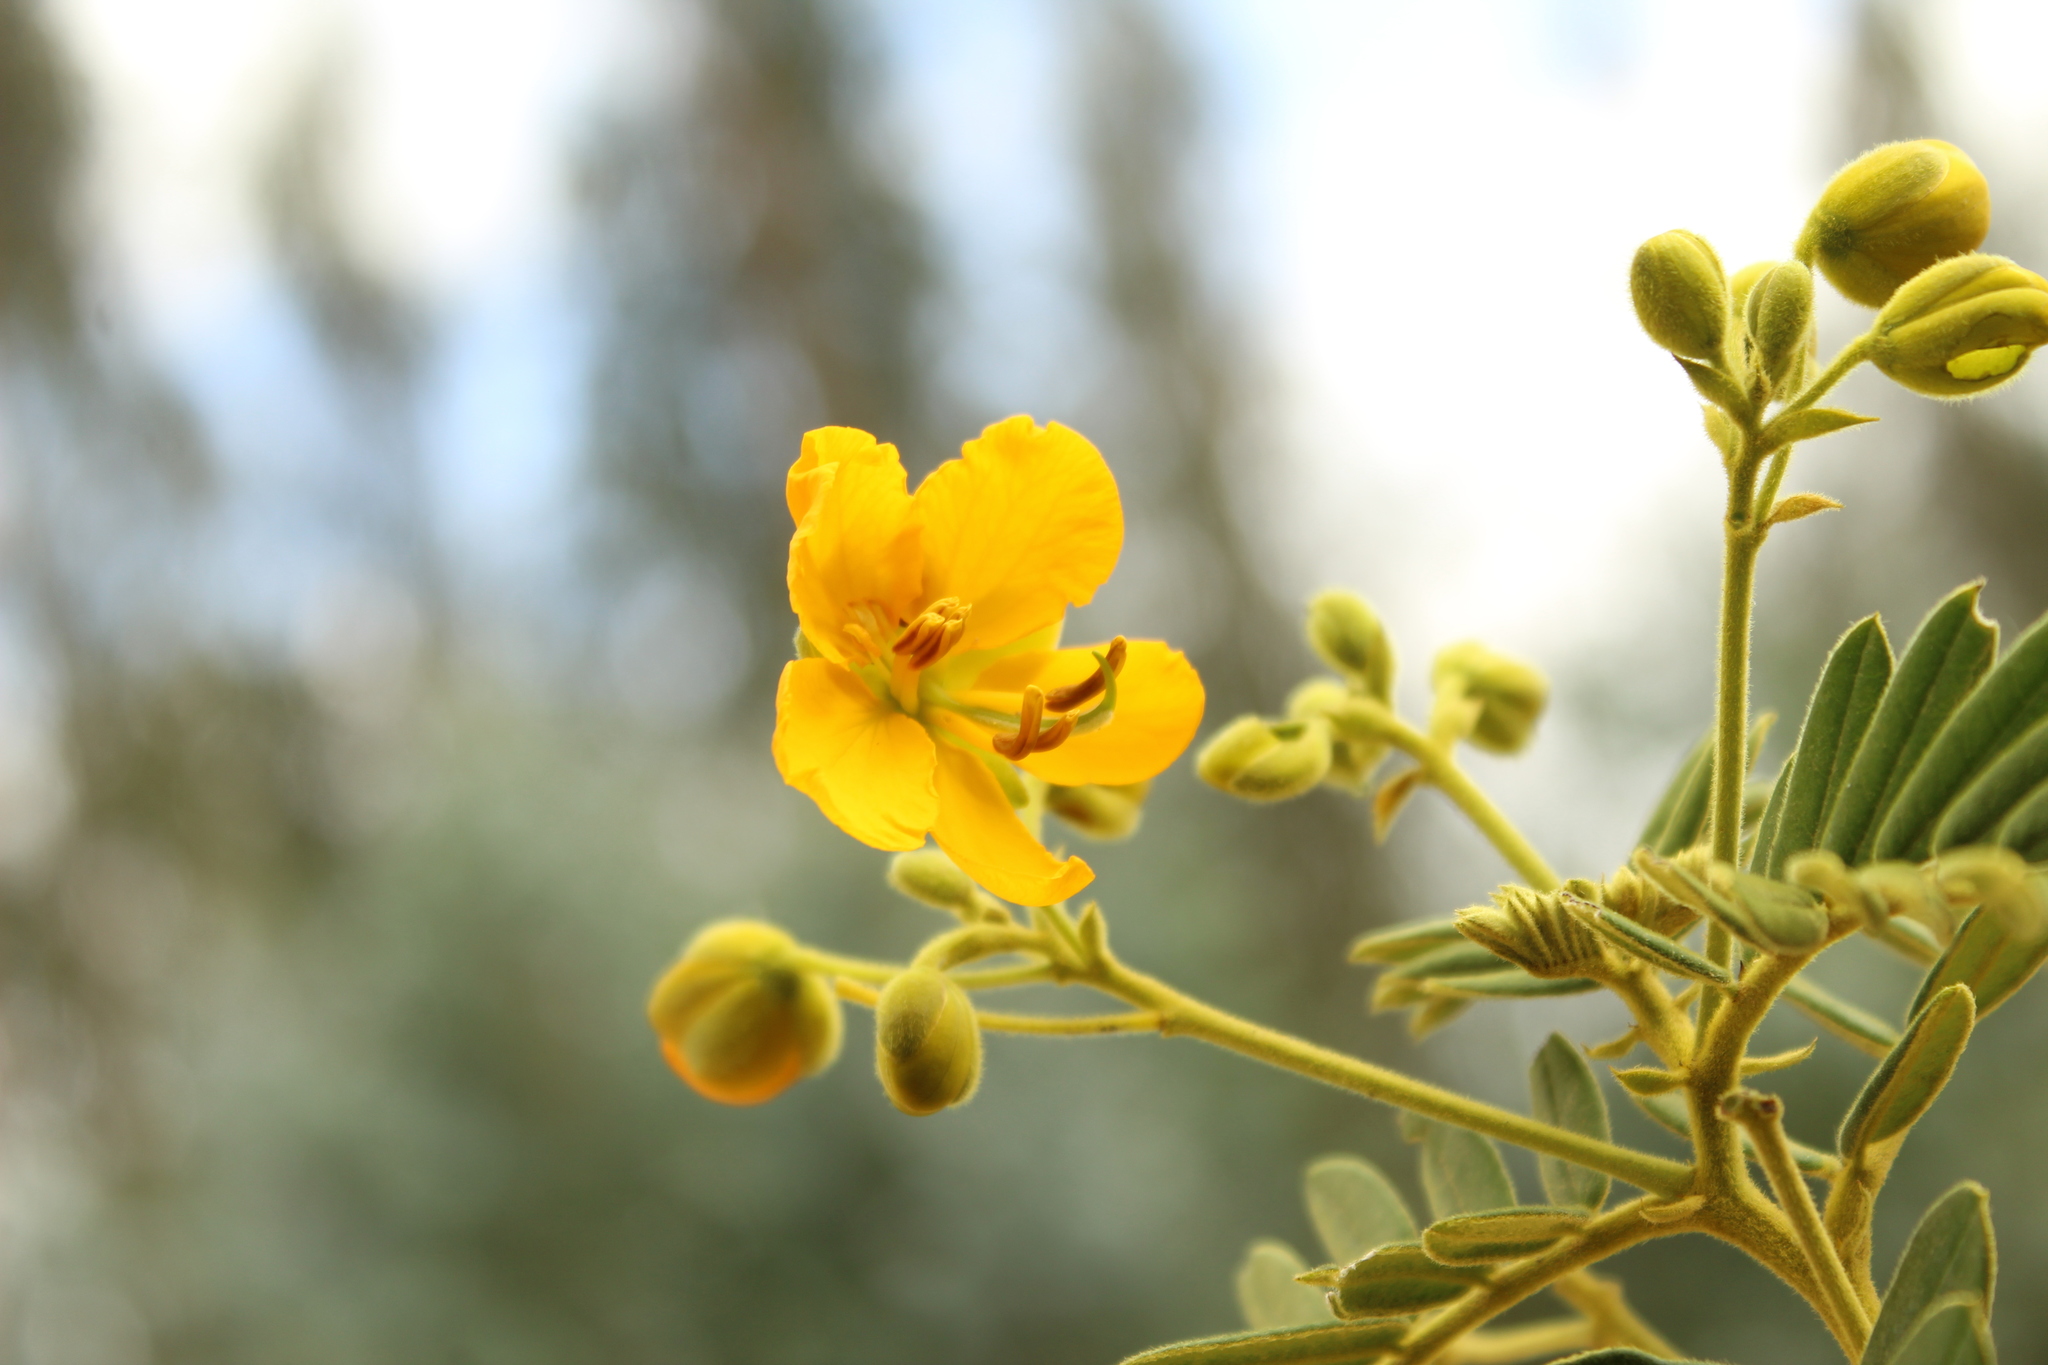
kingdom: Plantae
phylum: Tracheophyta
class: Magnoliopsida
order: Fabales
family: Fabaceae
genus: Senna
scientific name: Senna multiglandulosa
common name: Glandular senna
